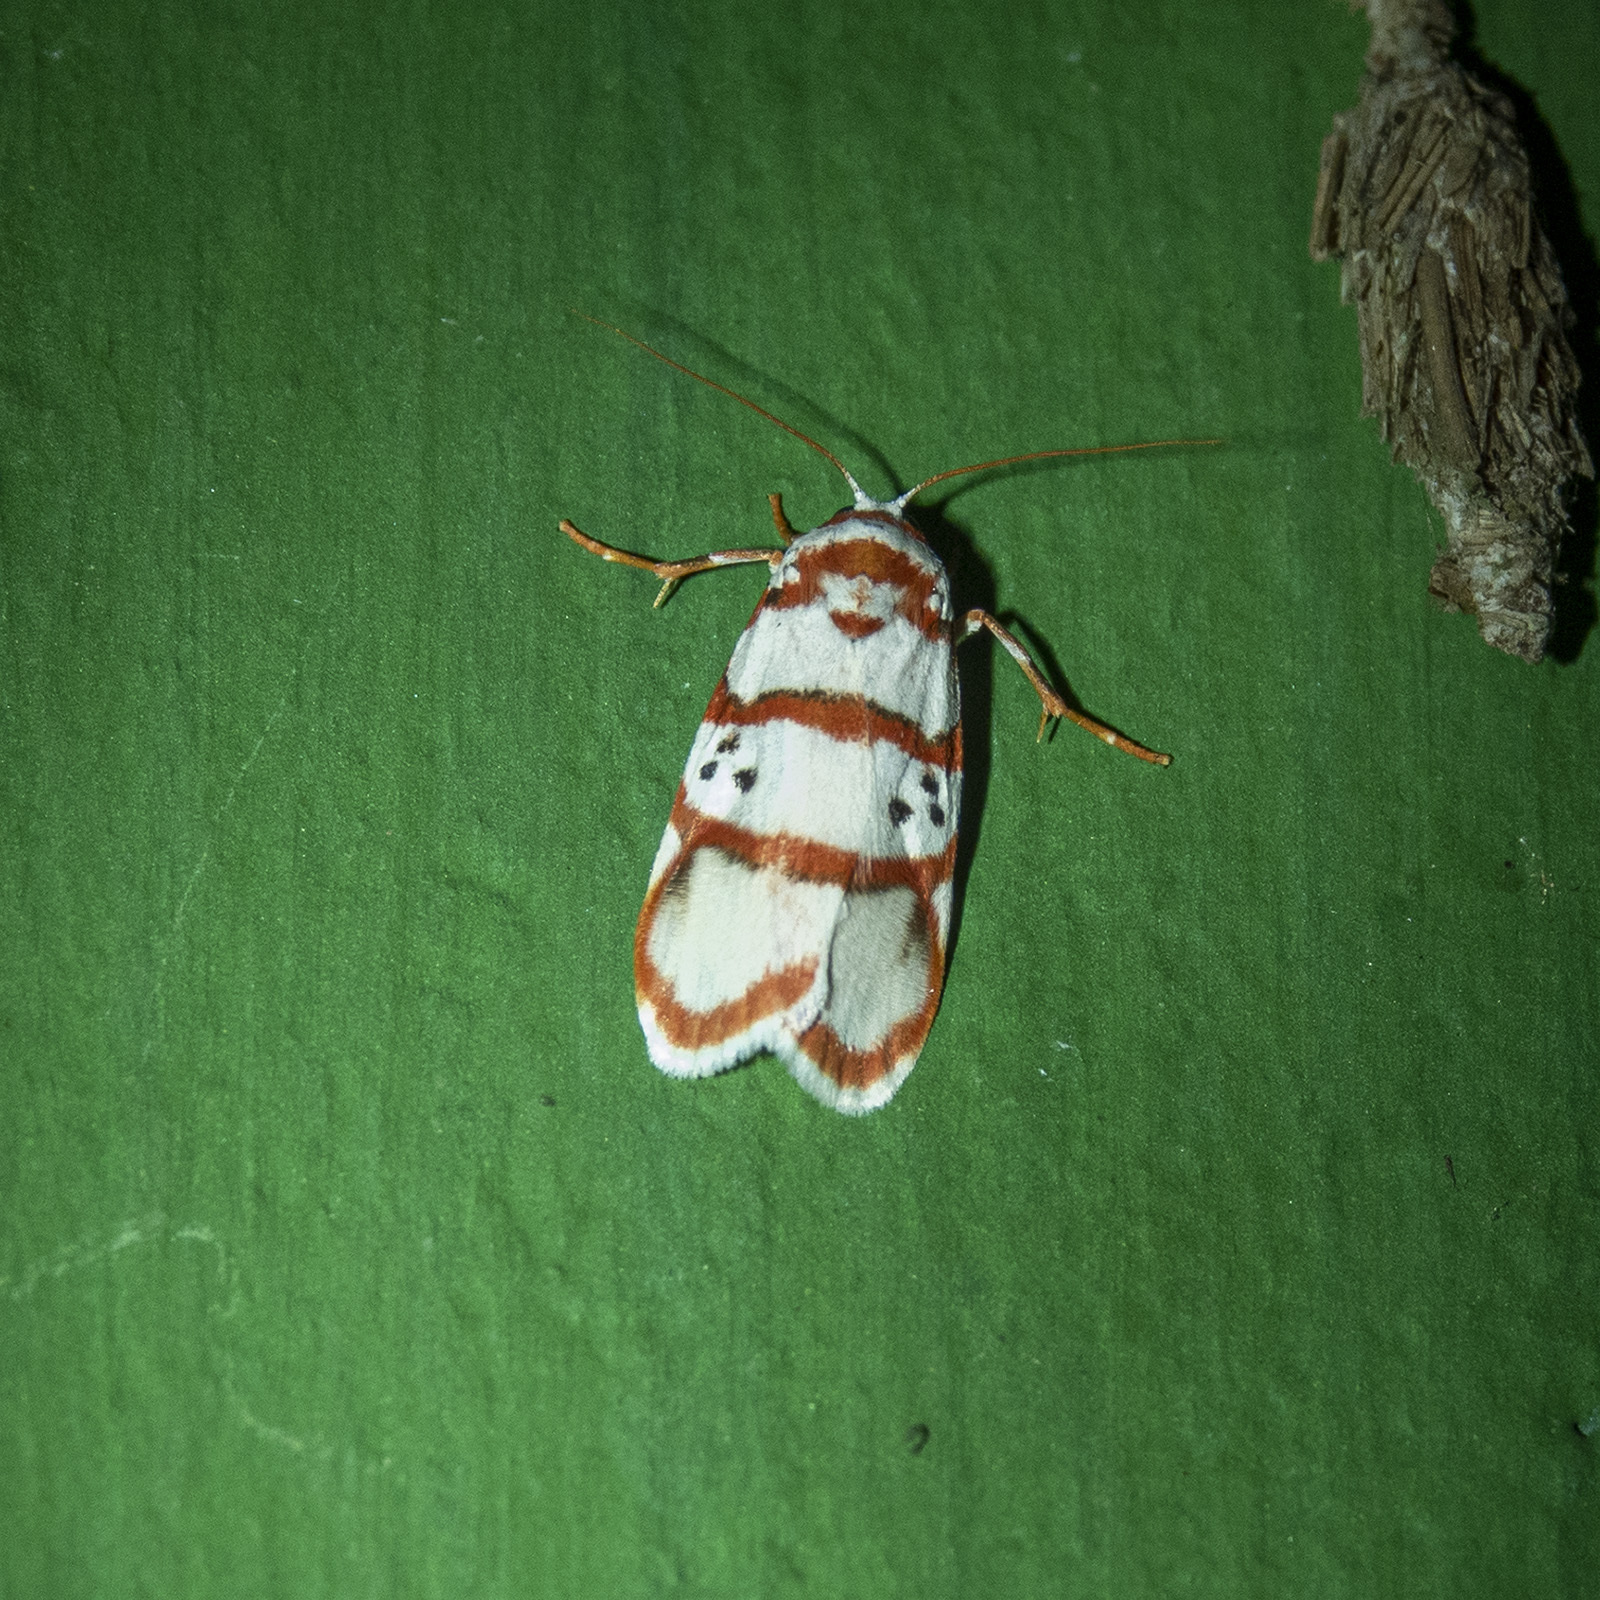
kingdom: Animalia
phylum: Arthropoda
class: Insecta
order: Lepidoptera
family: Erebidae
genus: Cyana
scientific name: Cyana peregrina
